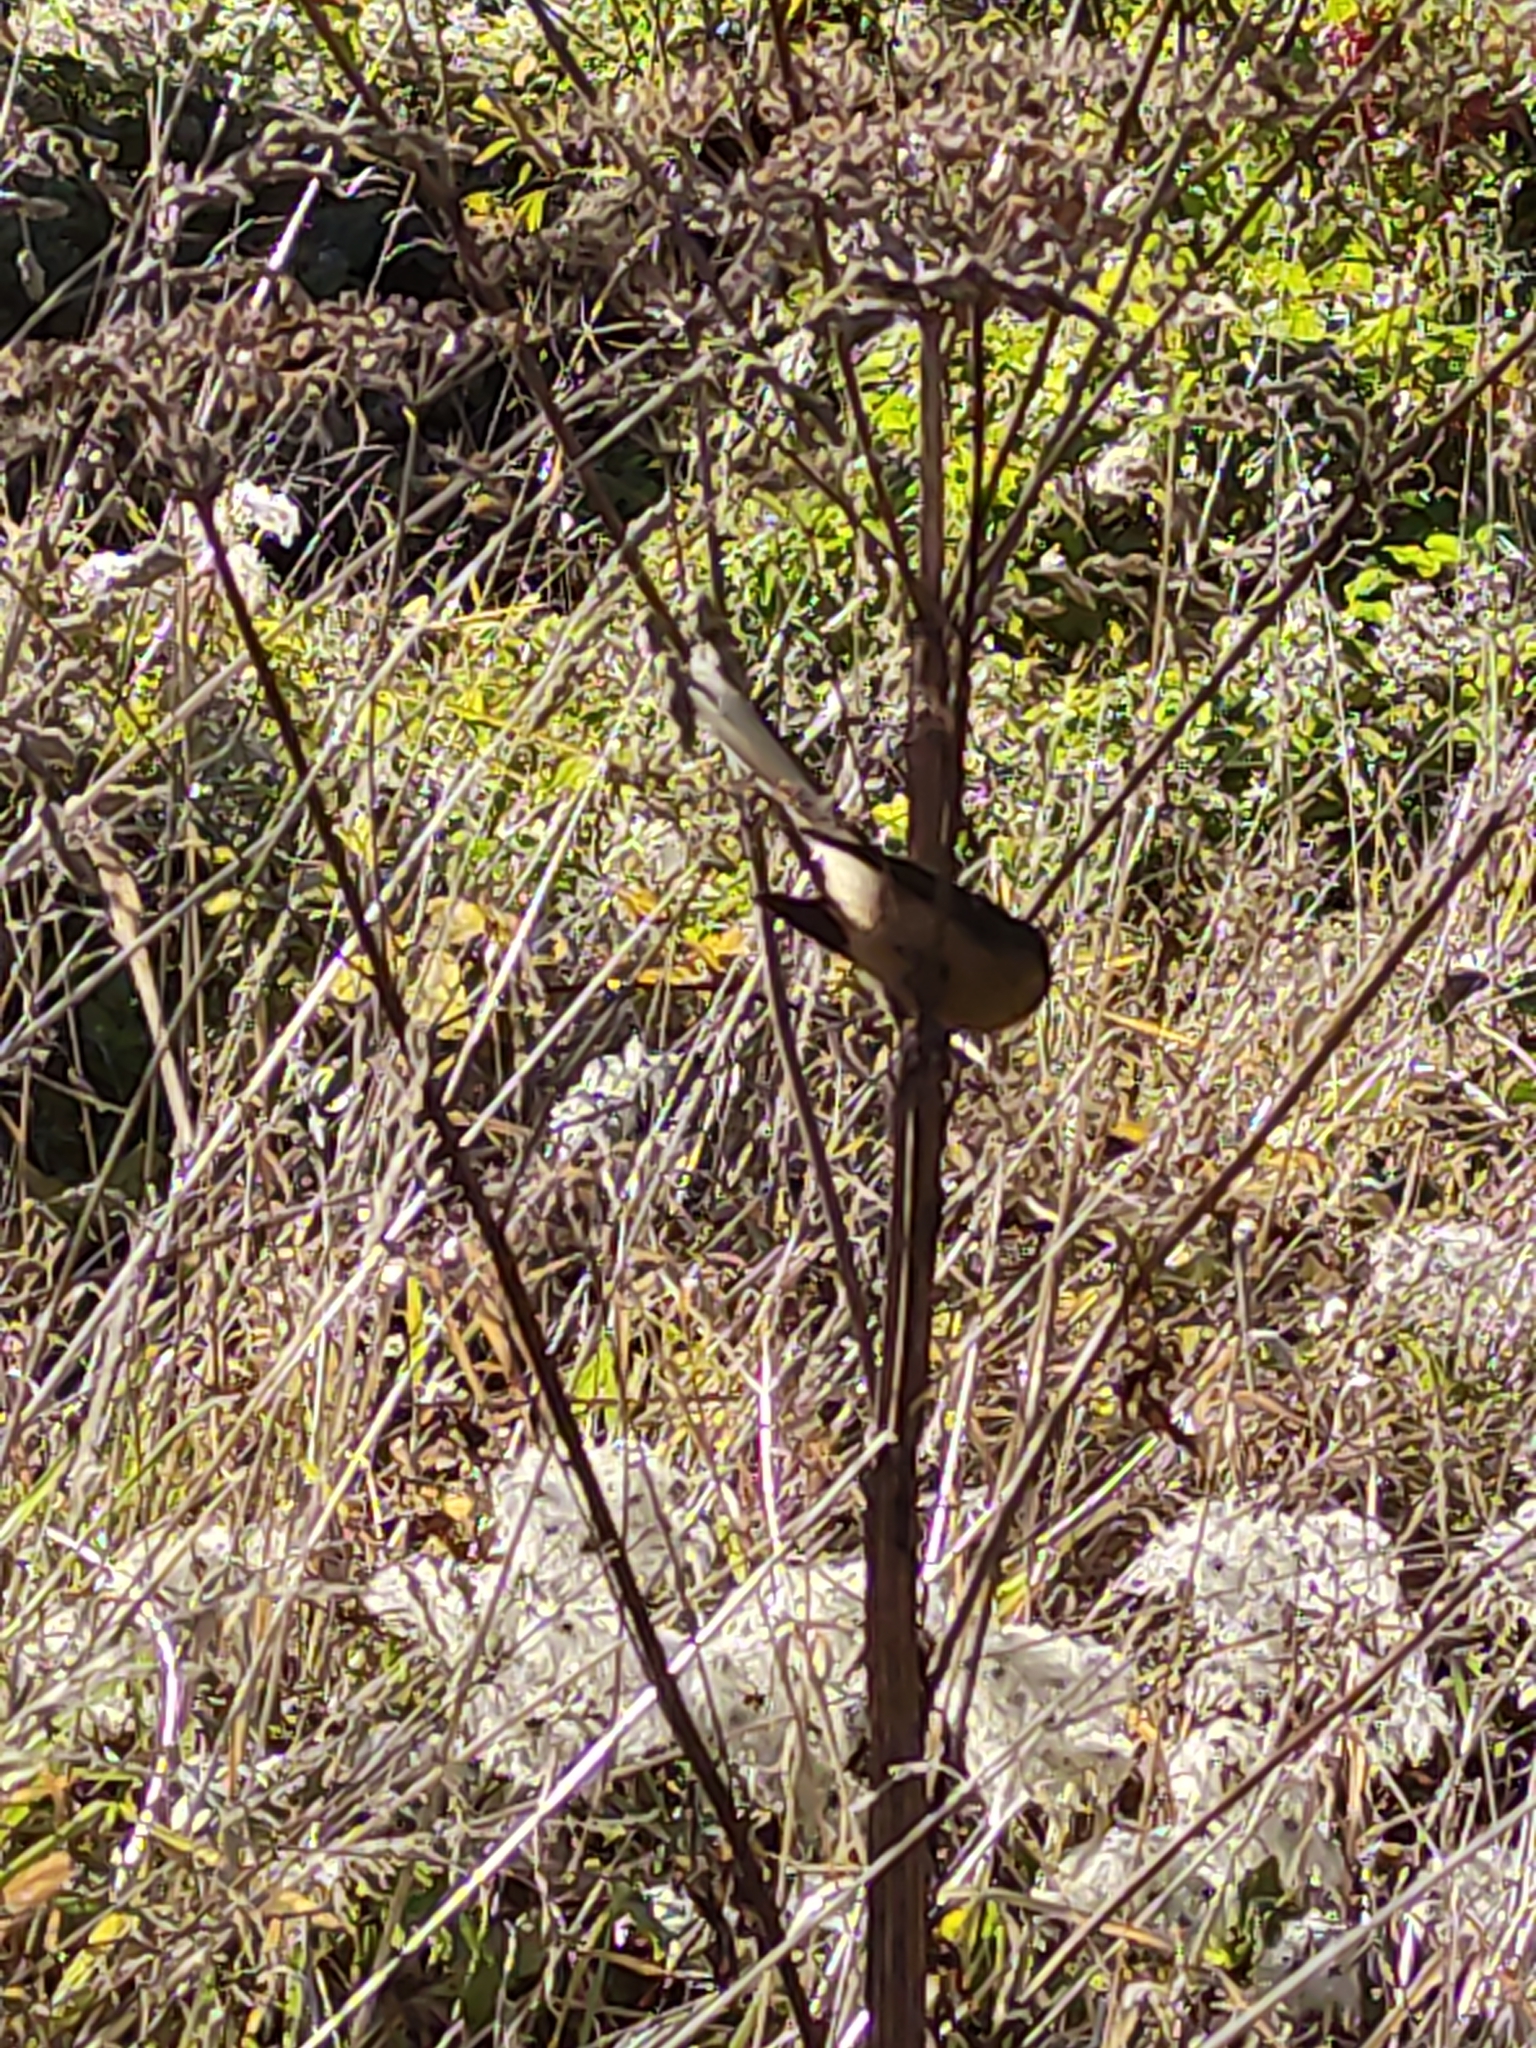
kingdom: Animalia
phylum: Chordata
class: Aves
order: Passeriformes
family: Rhipiduridae
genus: Rhipidura
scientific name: Rhipidura fuliginosa
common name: New zealand fantail
